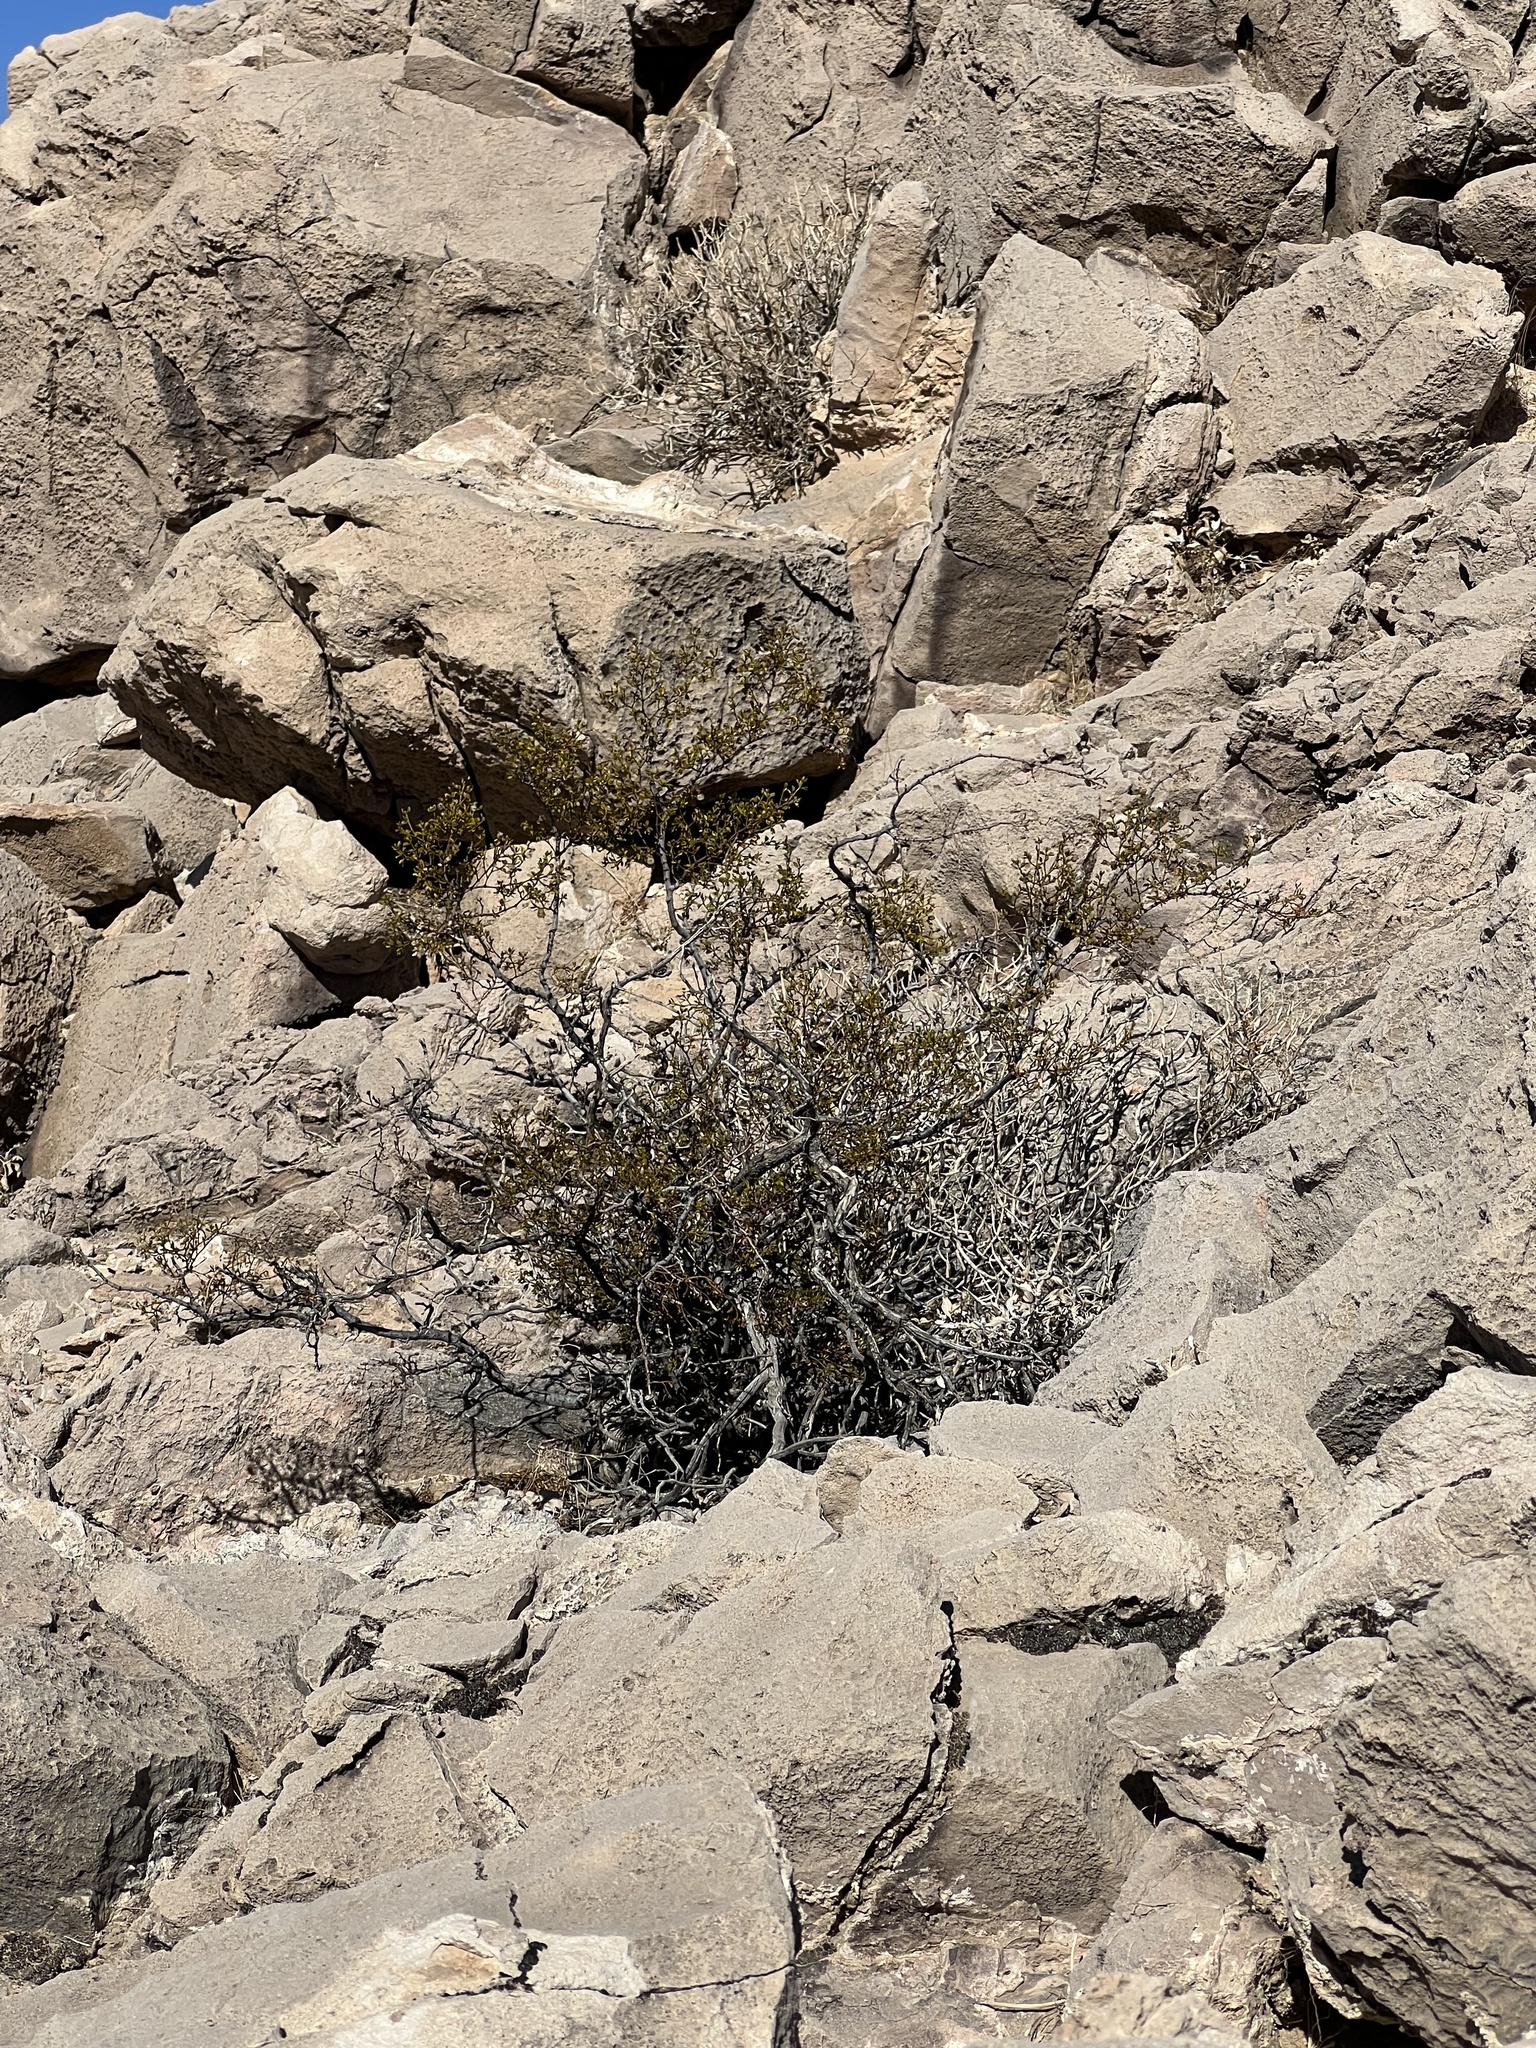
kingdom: Plantae
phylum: Tracheophyta
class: Magnoliopsida
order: Zygophyllales
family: Zygophyllaceae
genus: Larrea
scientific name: Larrea tridentata
